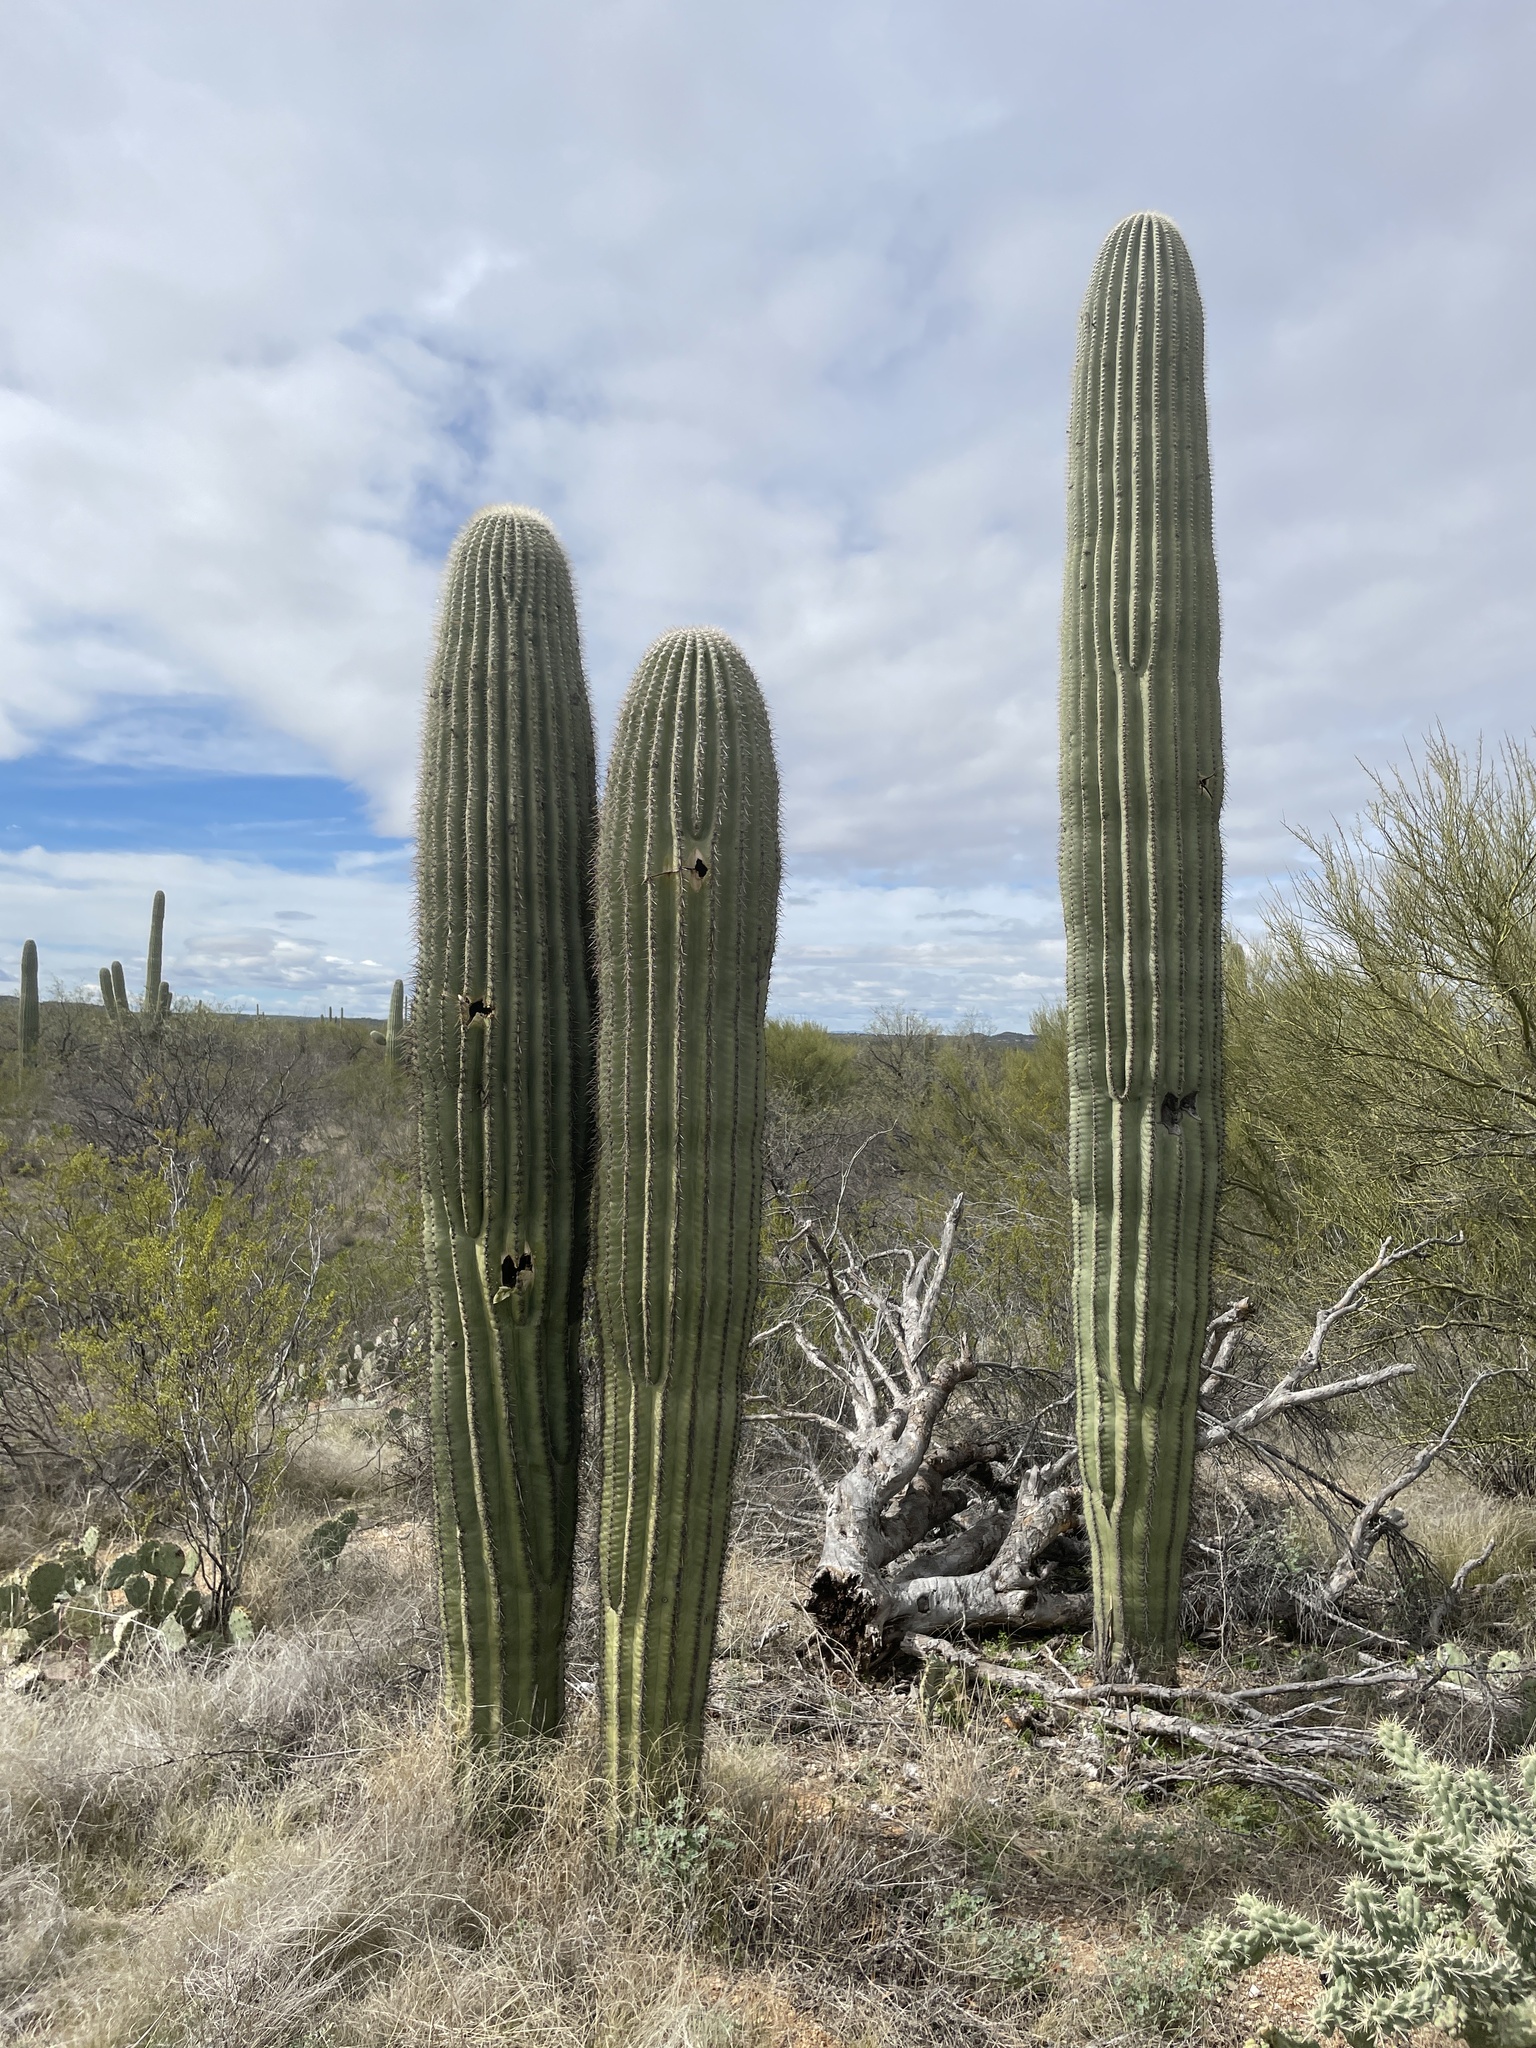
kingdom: Plantae
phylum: Tracheophyta
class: Magnoliopsida
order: Caryophyllales
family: Cactaceae
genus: Carnegiea
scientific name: Carnegiea gigantea
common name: Saguaro
